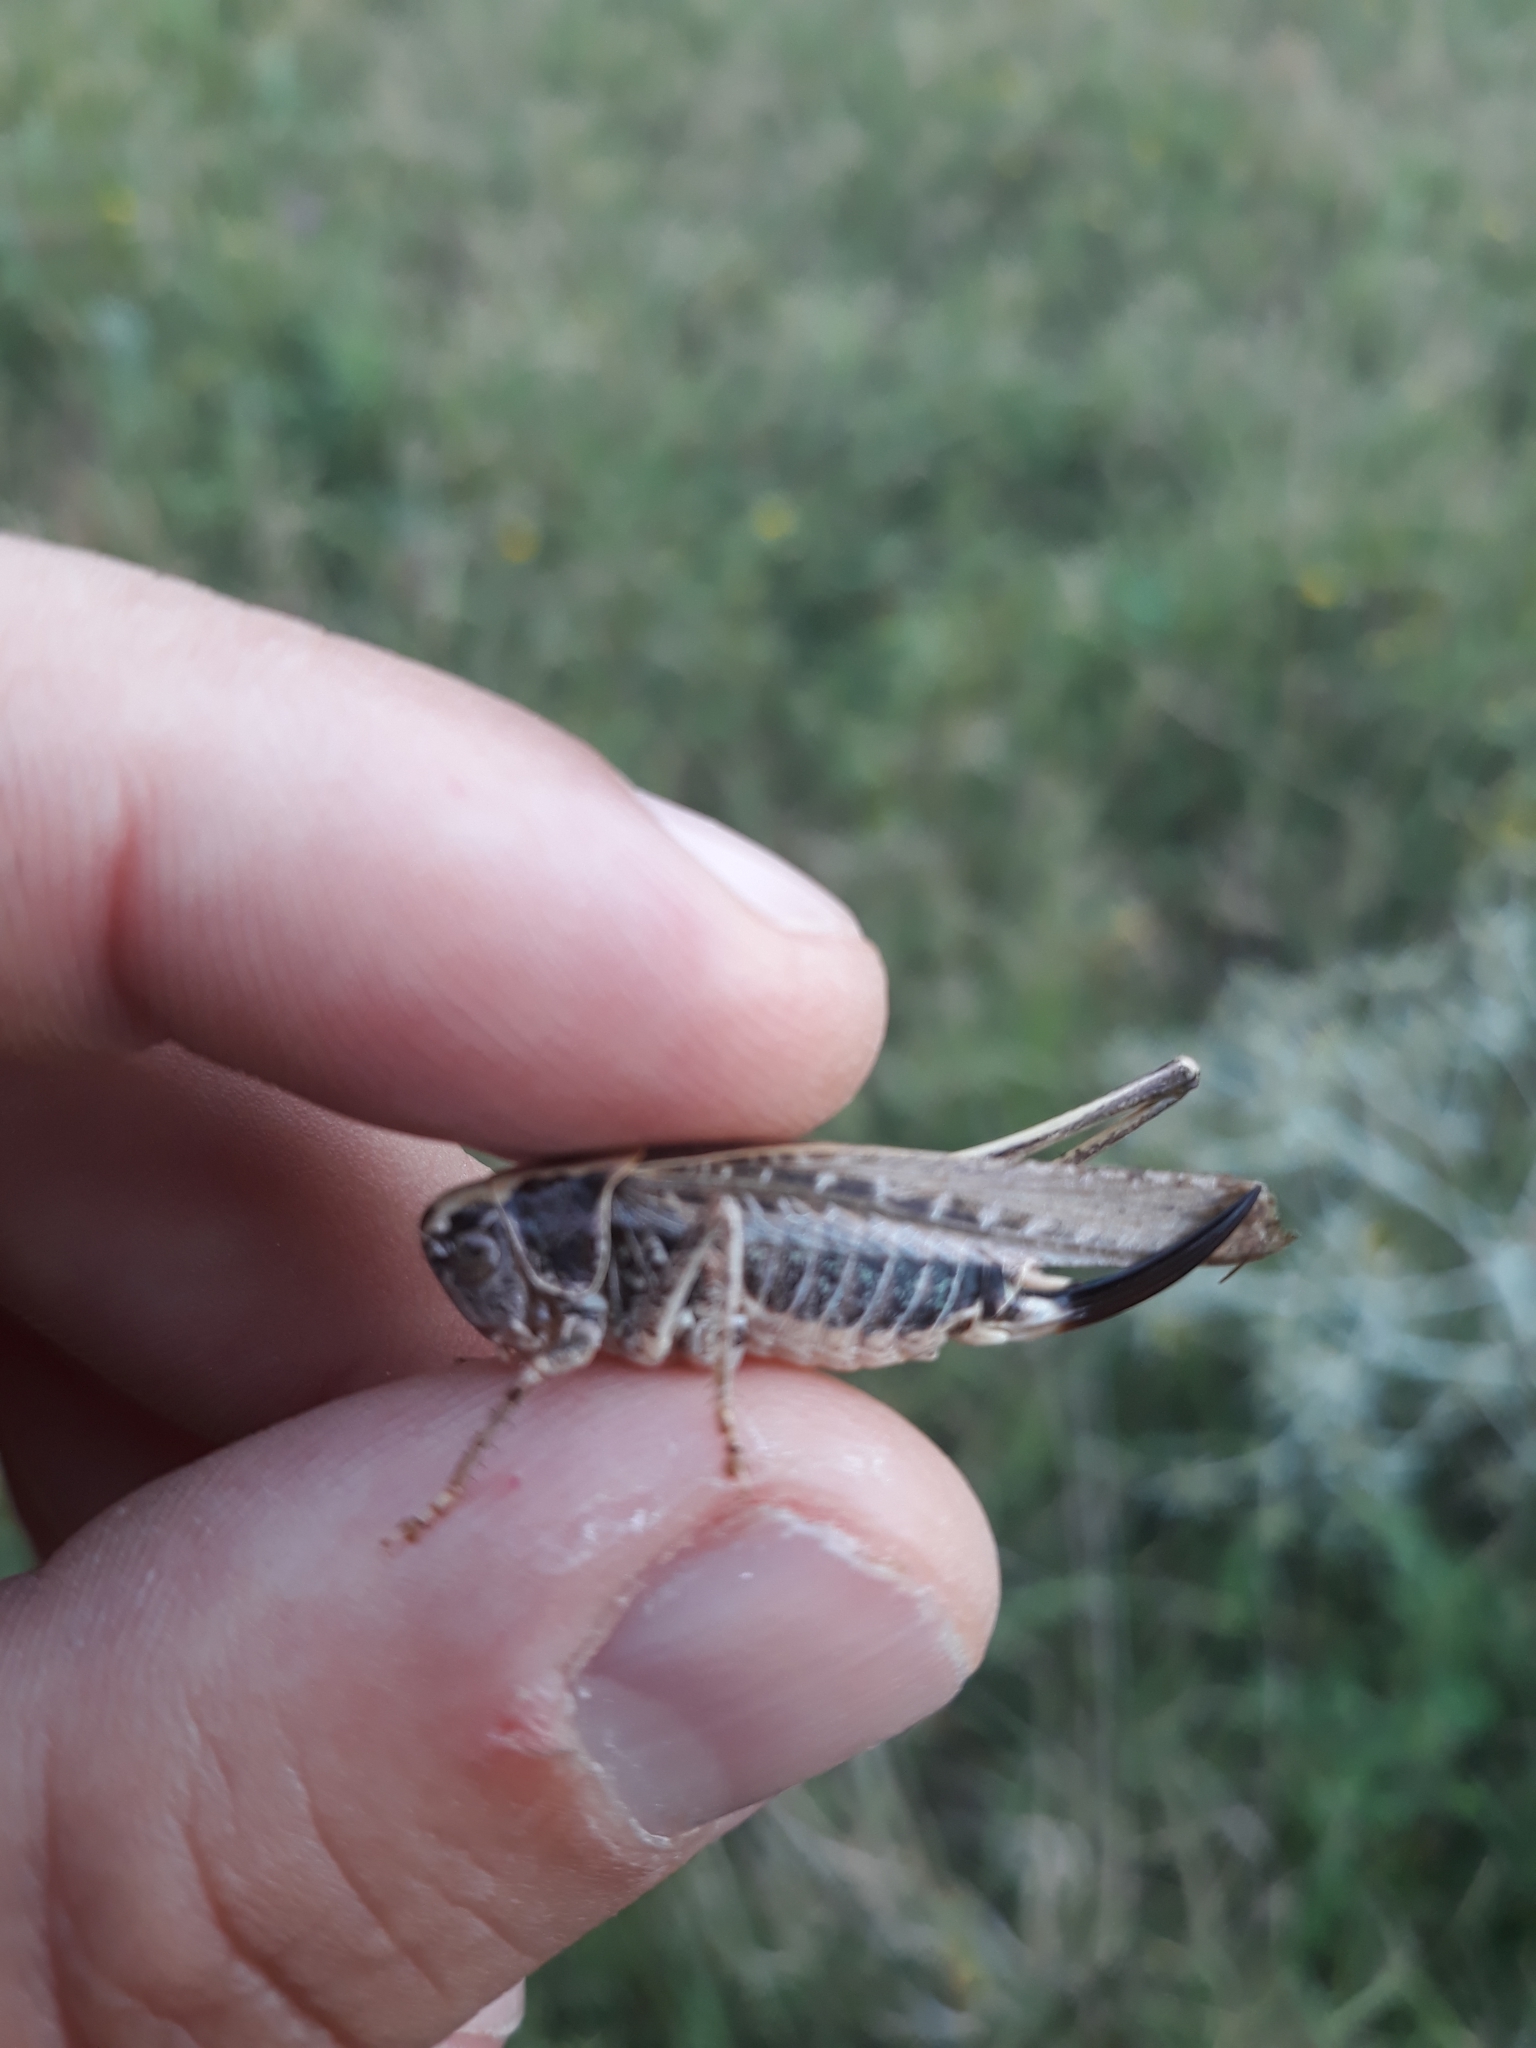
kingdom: Animalia
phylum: Arthropoda
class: Insecta
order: Orthoptera
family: Tettigoniidae
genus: Platycleis
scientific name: Platycleis affinis
